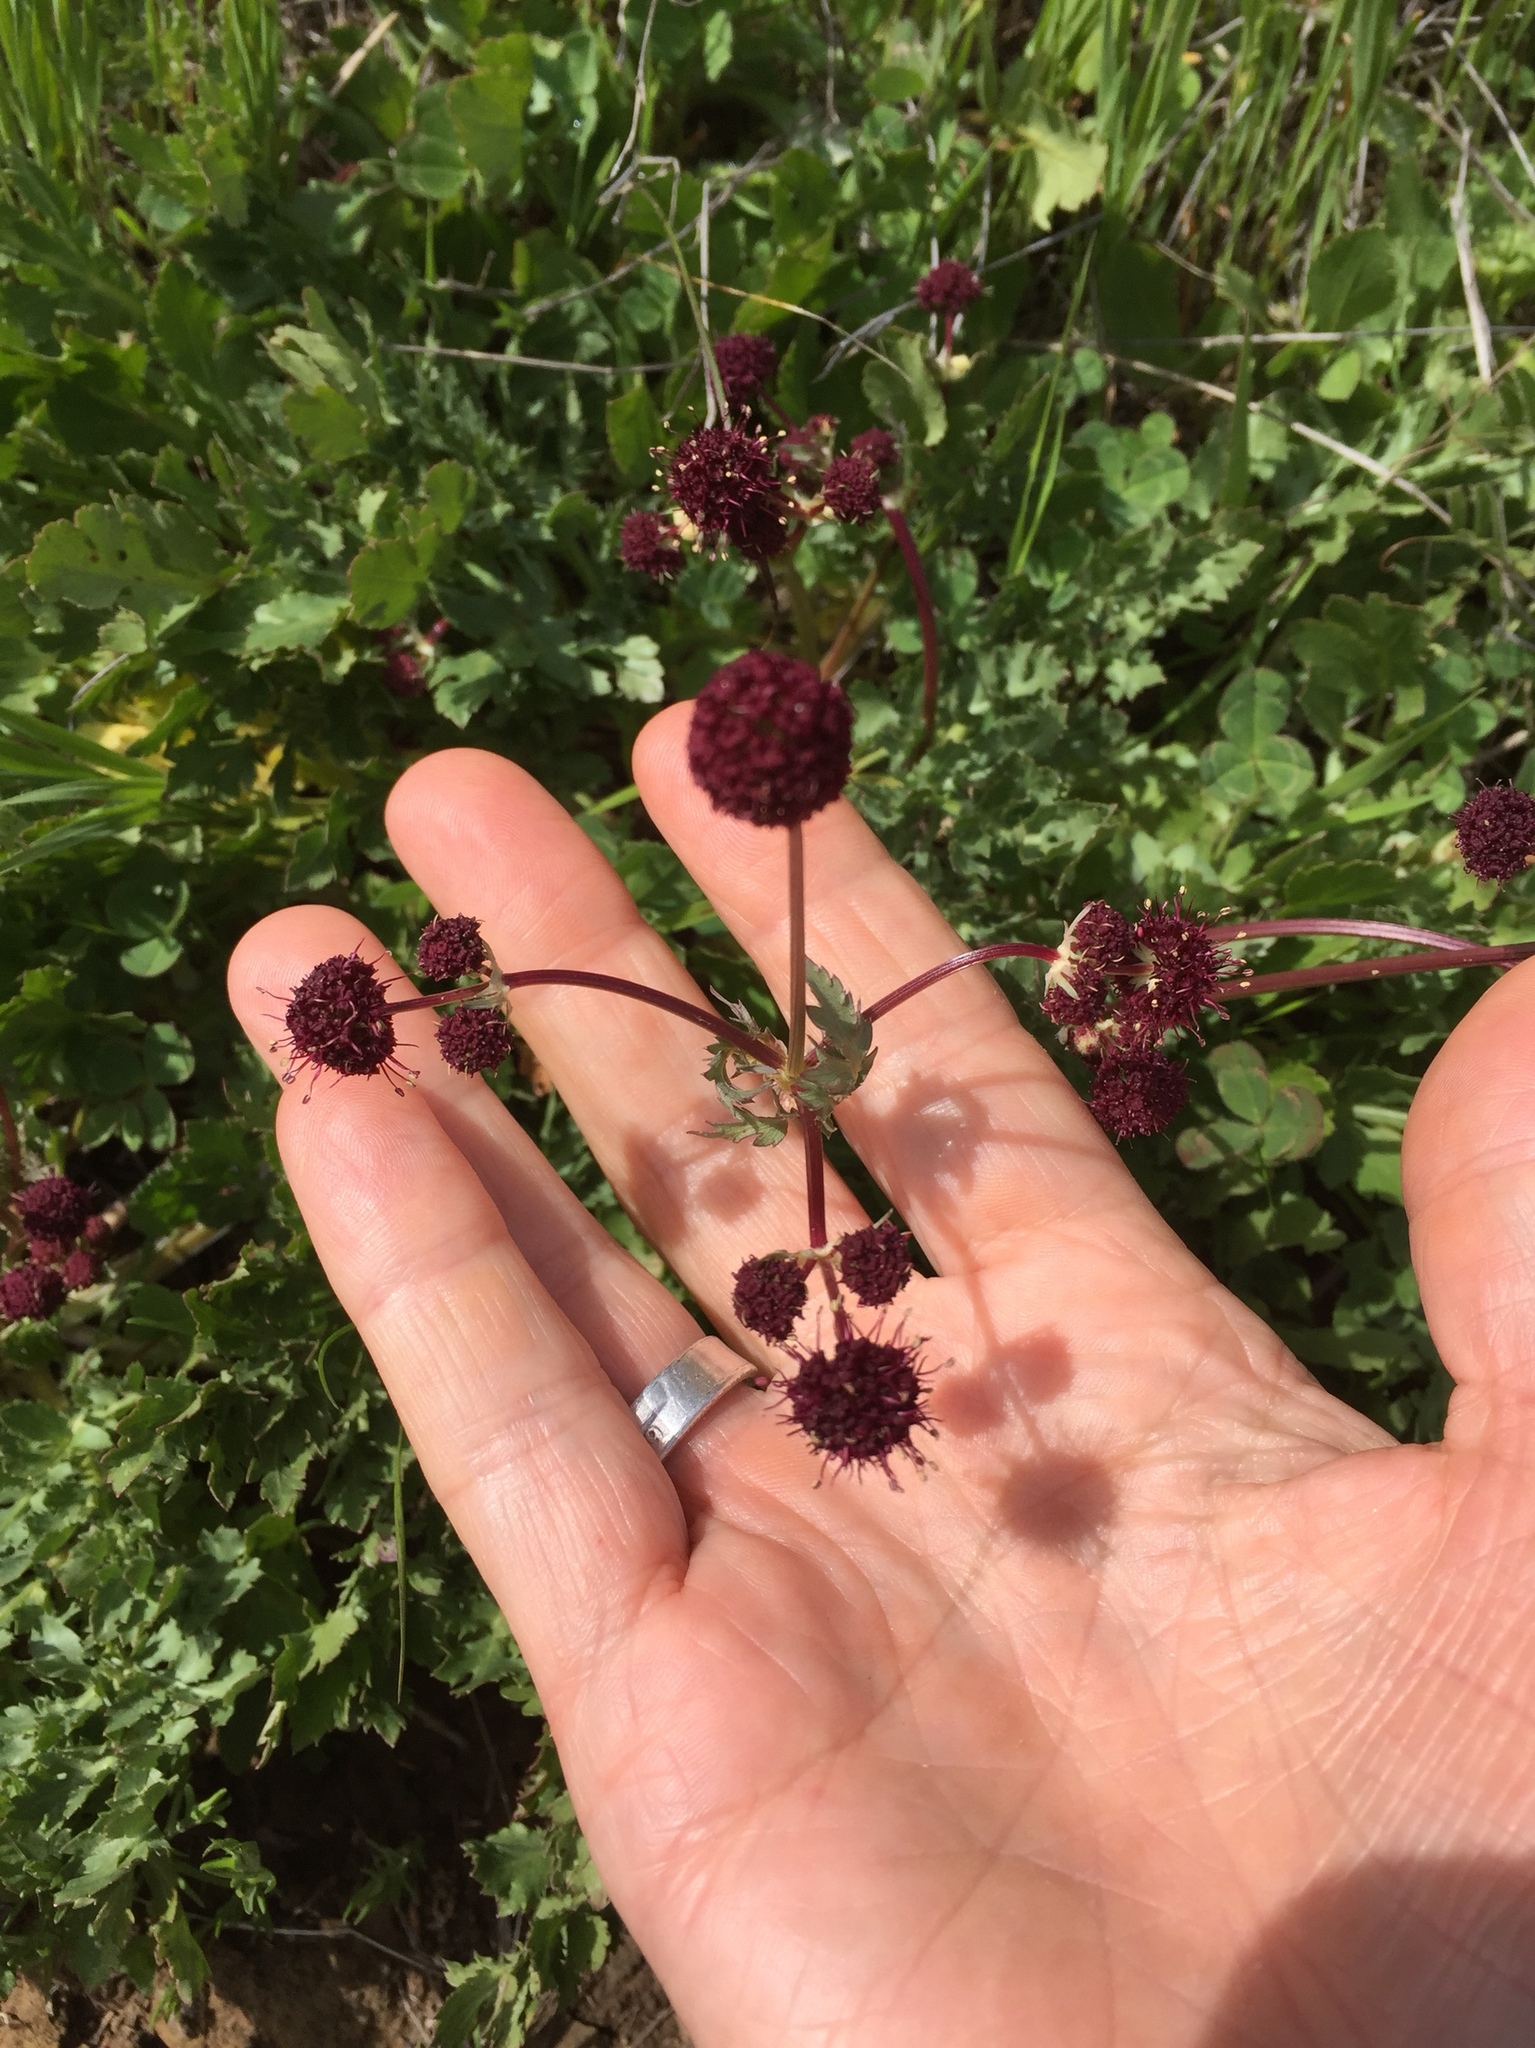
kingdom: Plantae
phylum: Tracheophyta
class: Magnoliopsida
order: Apiales
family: Apiaceae
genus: Sanicula
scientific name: Sanicula bipinnatifida
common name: Shoe-buttons
